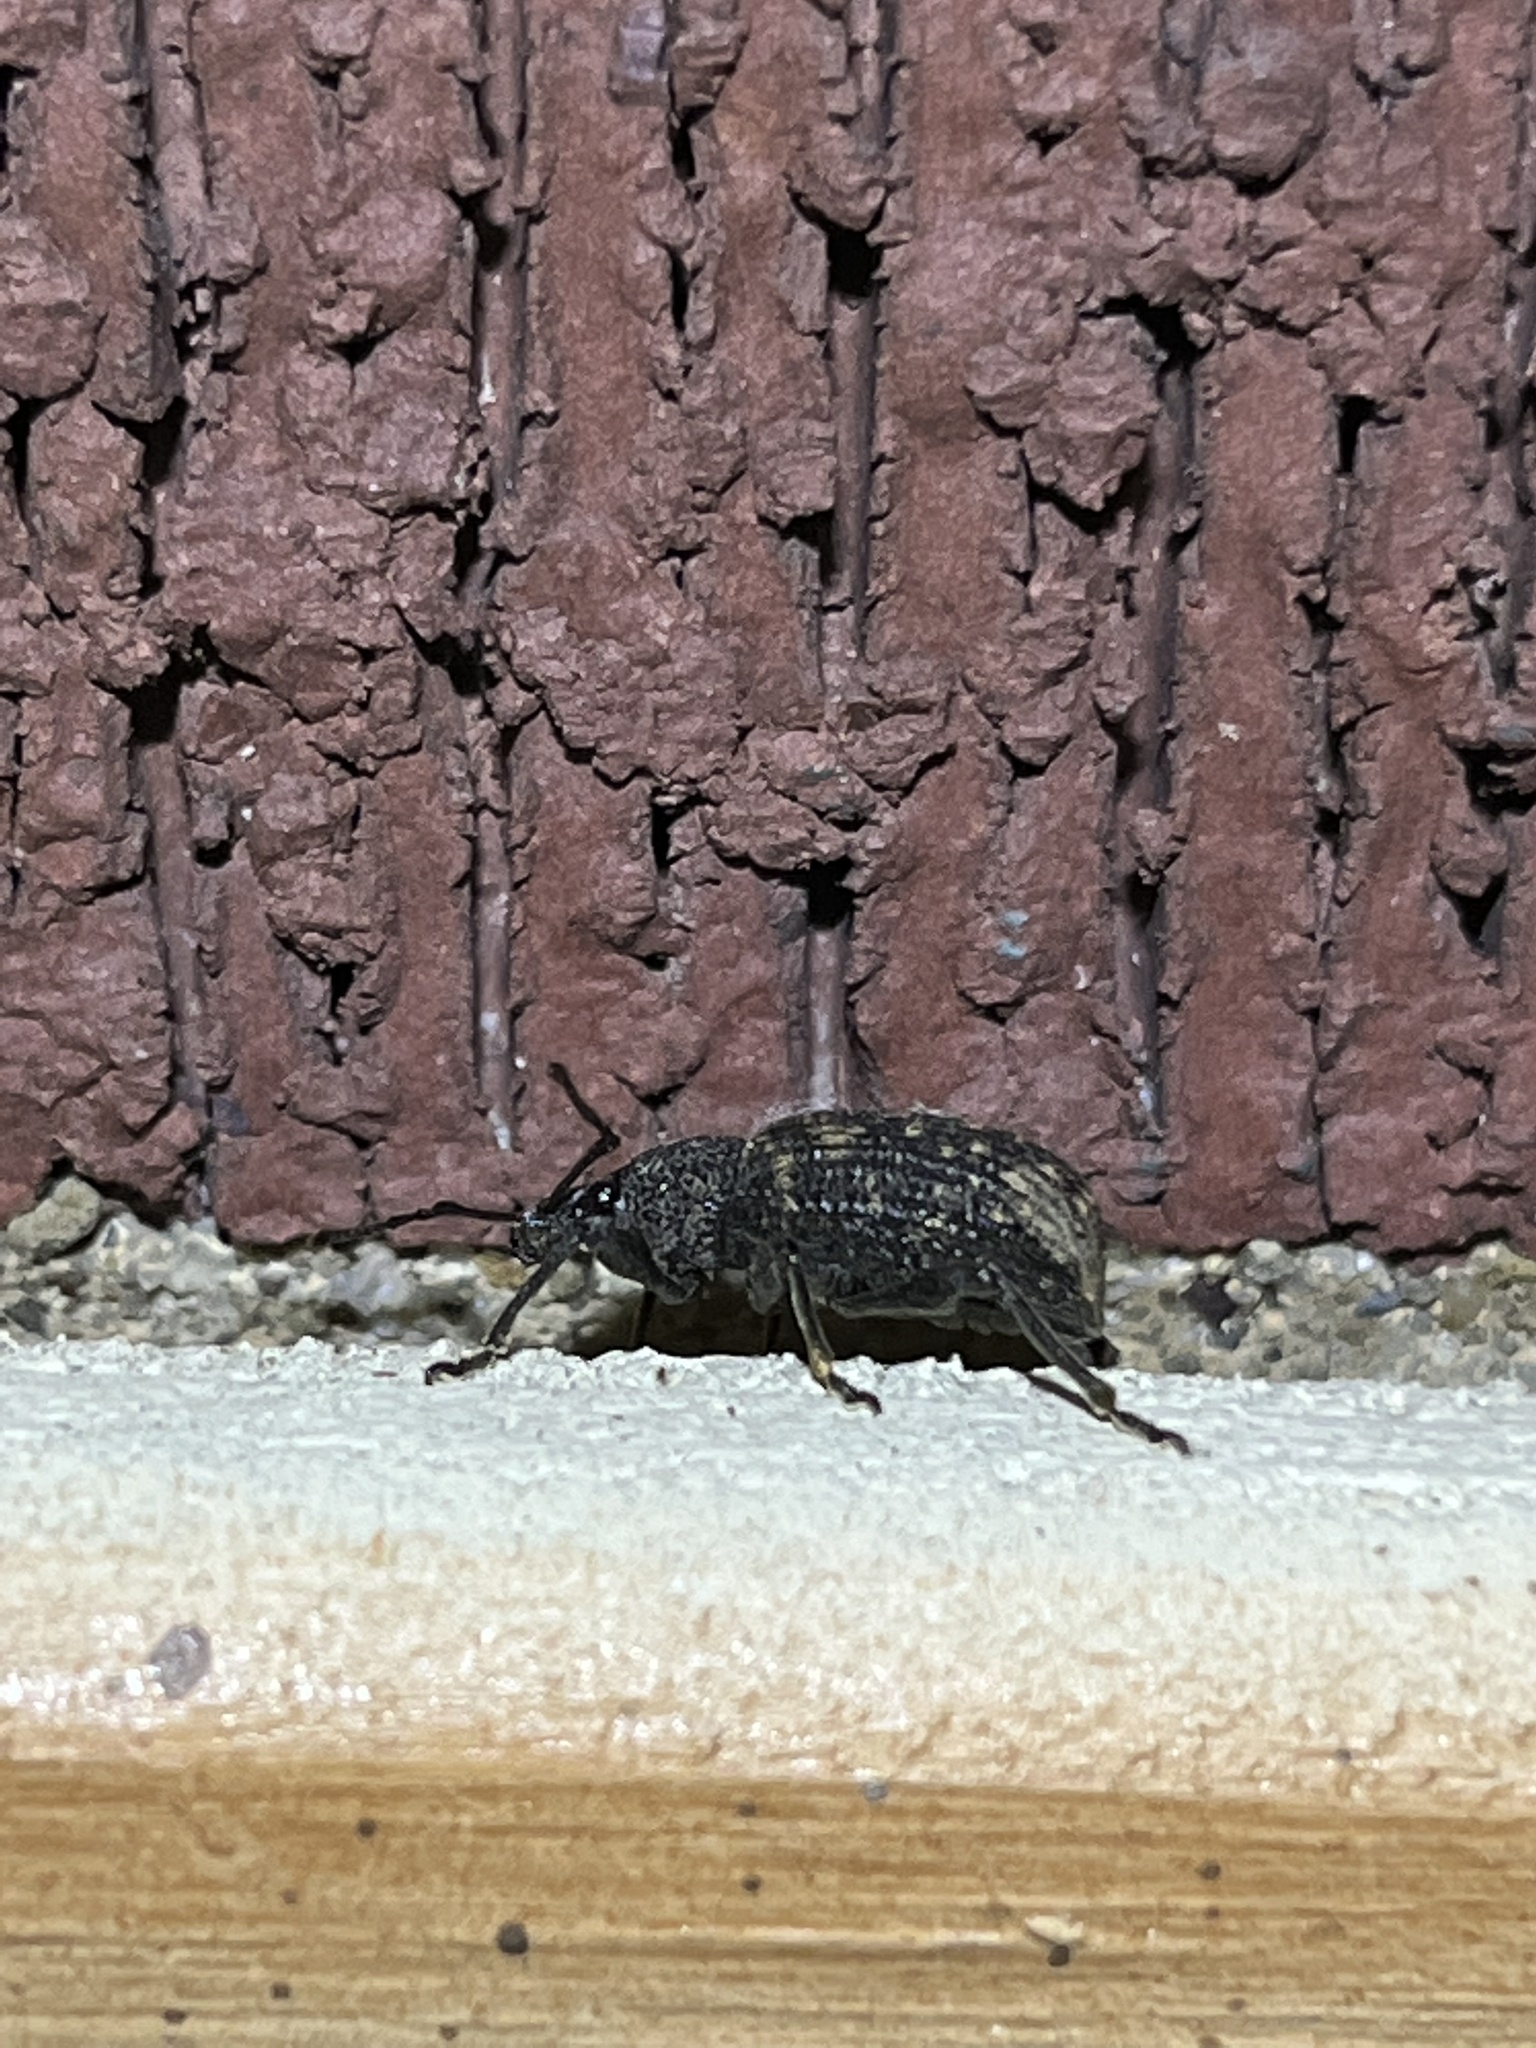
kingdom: Animalia
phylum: Arthropoda
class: Insecta
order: Coleoptera
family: Curculionidae
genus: Otiorhynchus
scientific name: Otiorhynchus sulcatus
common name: Black vine weevil
